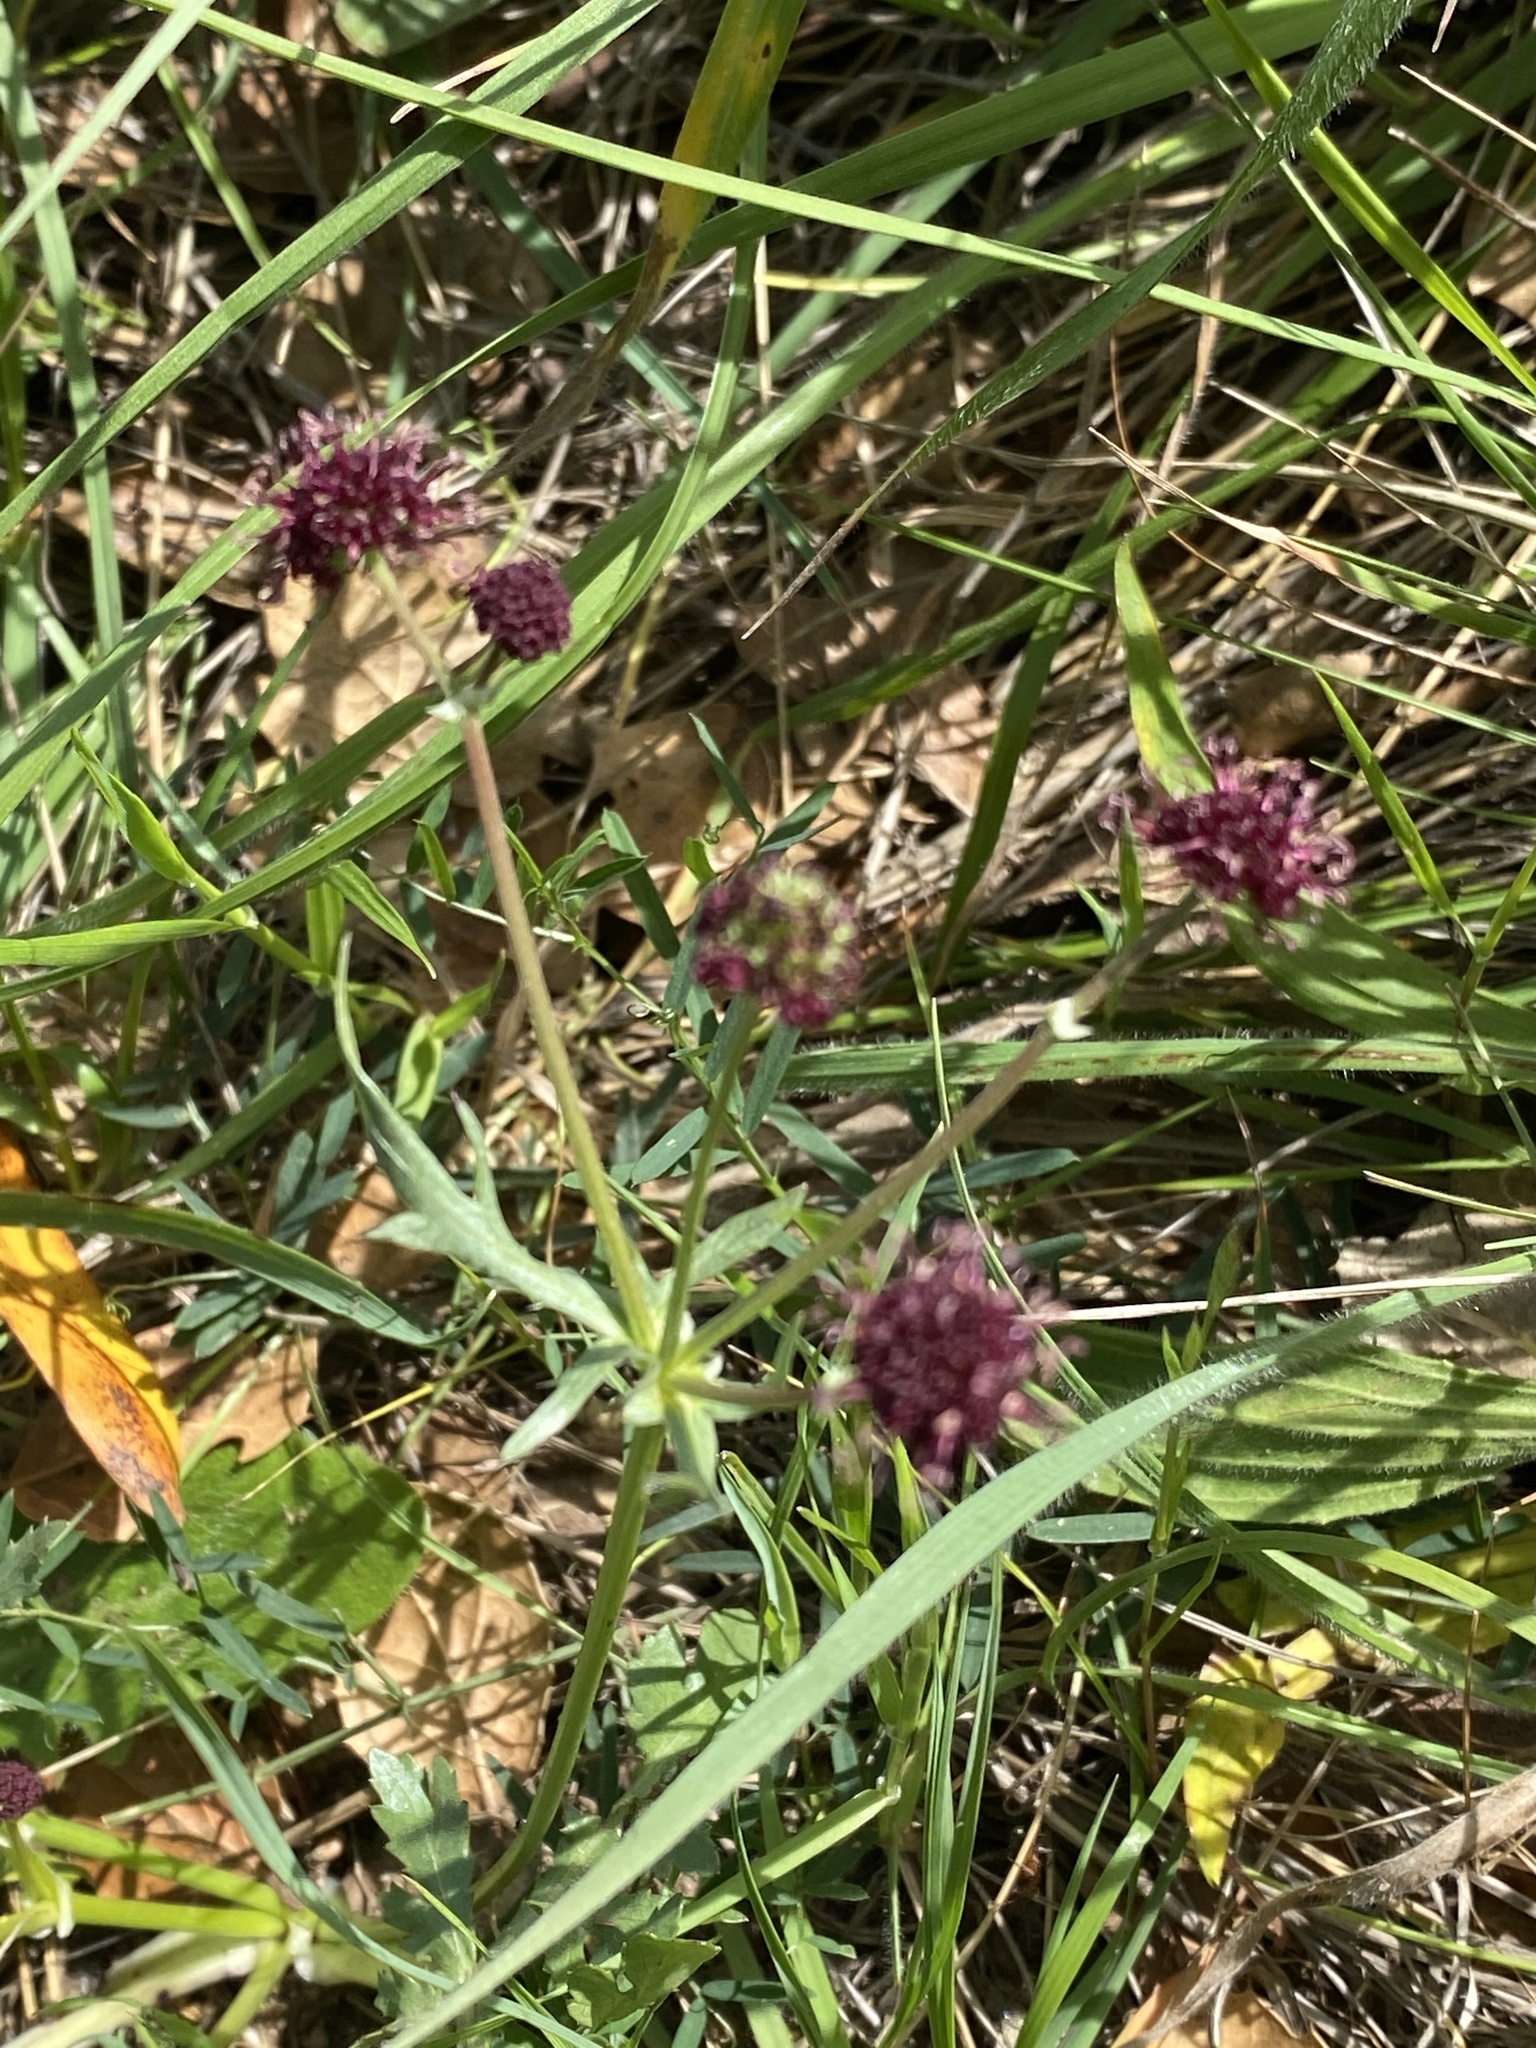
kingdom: Plantae
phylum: Tracheophyta
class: Magnoliopsida
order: Apiales
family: Apiaceae
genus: Sanicula
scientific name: Sanicula bipinnatifida
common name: Shoe-buttons
